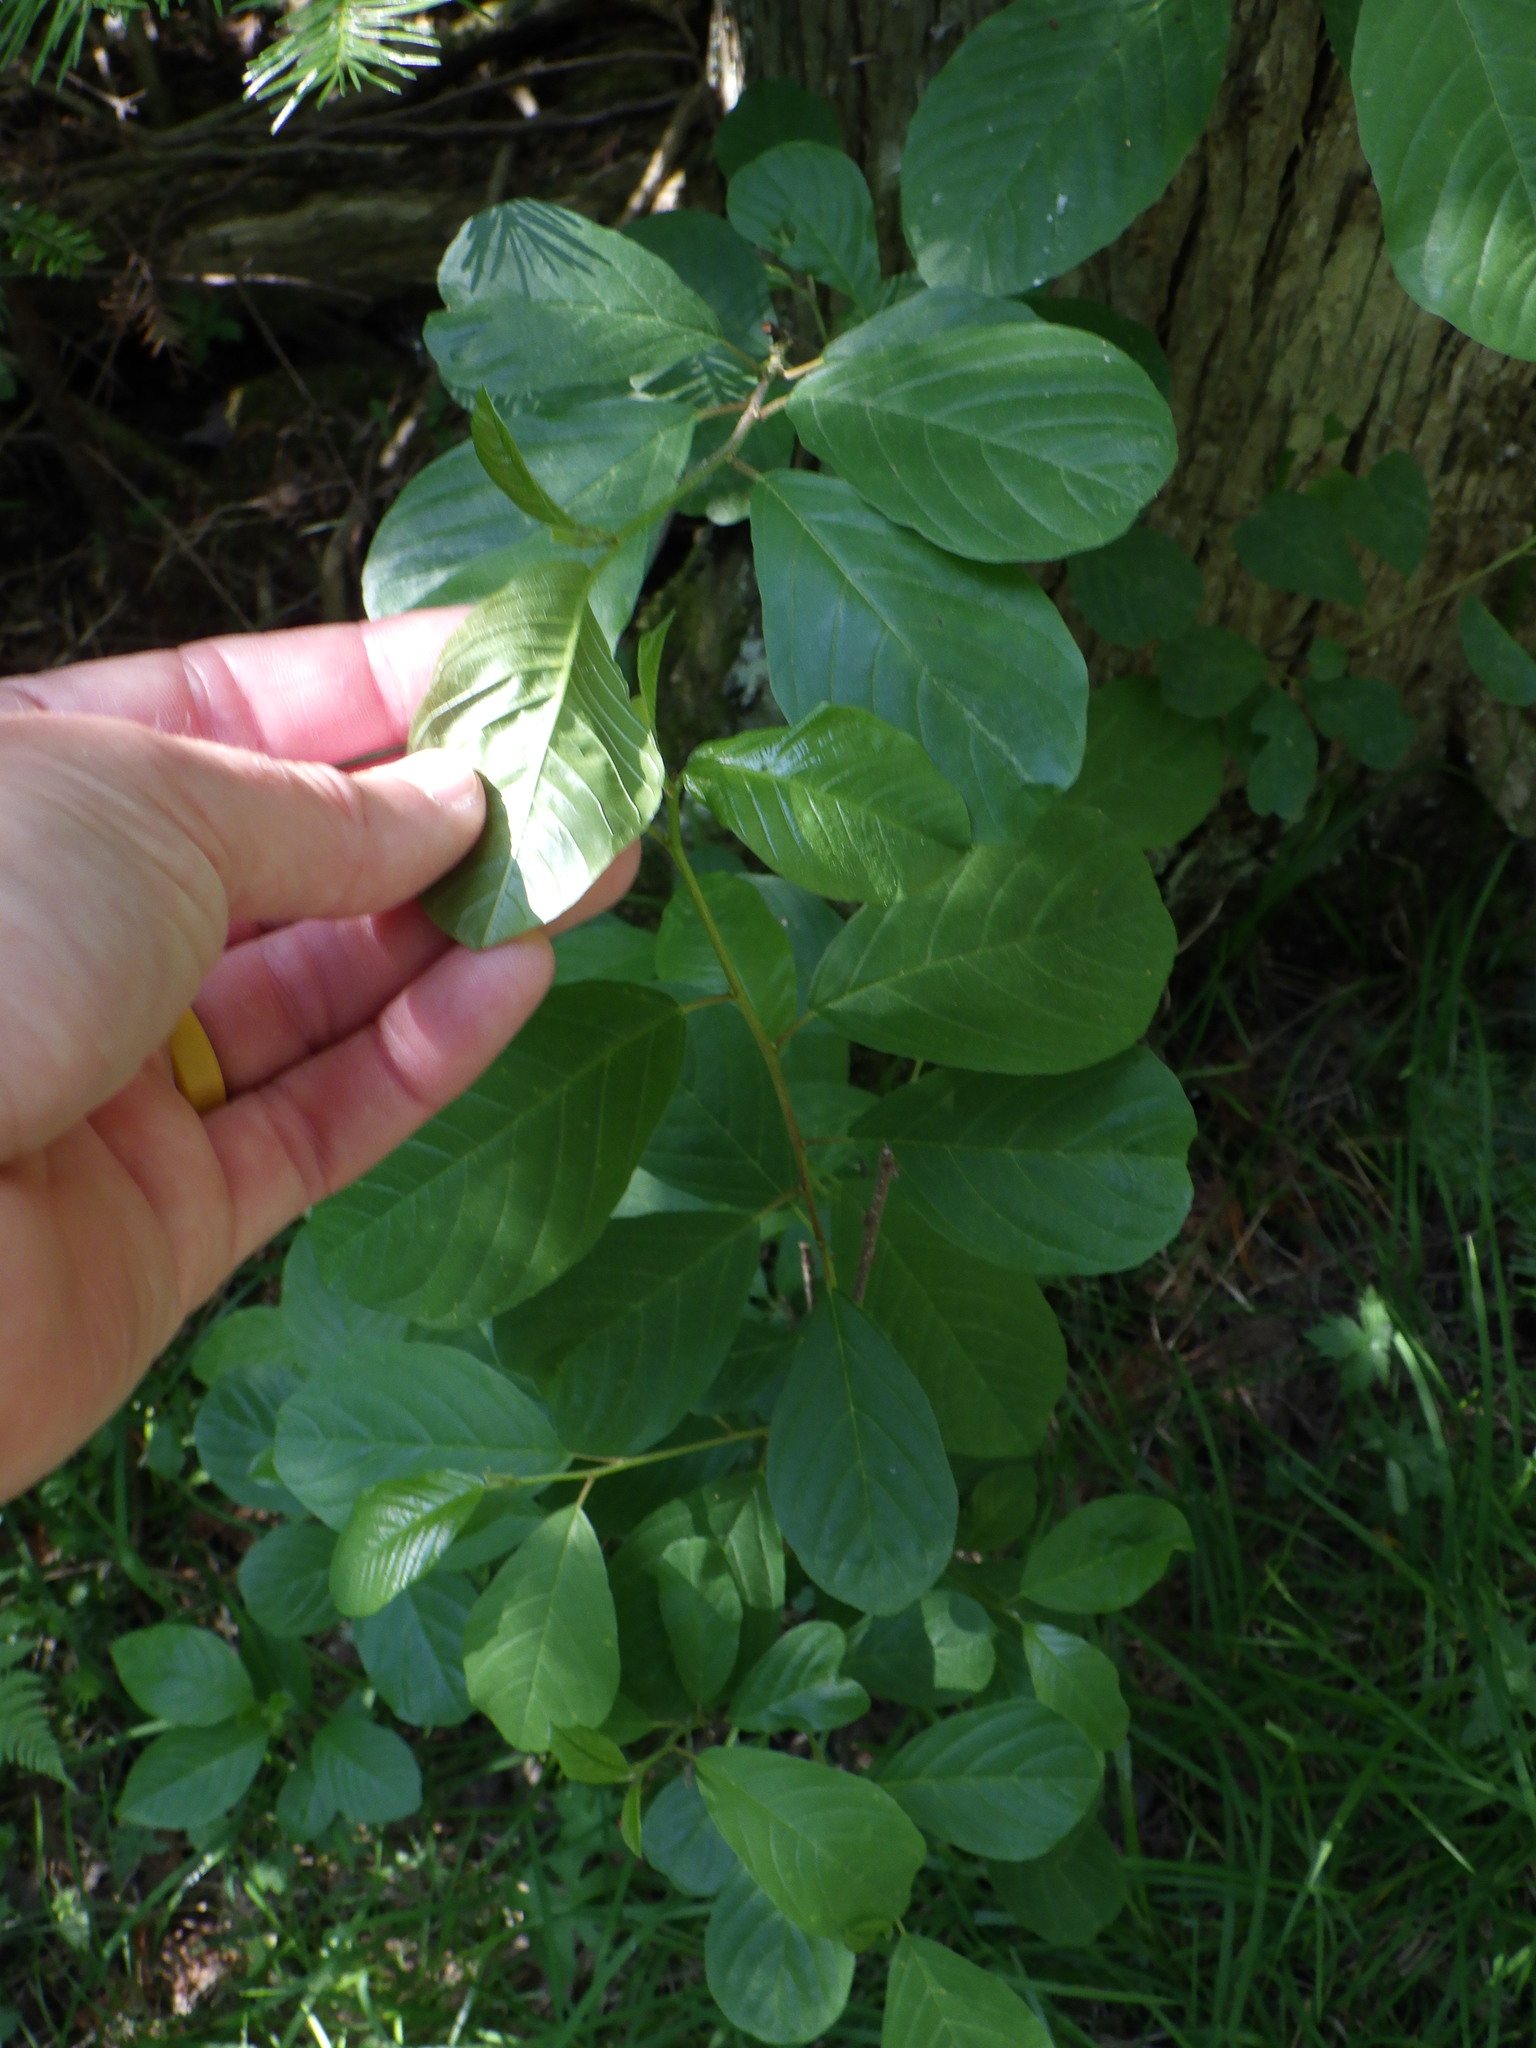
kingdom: Plantae
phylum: Tracheophyta
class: Magnoliopsida
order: Rosales
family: Rhamnaceae
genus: Frangula
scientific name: Frangula alnus
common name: Alder buckthorn
